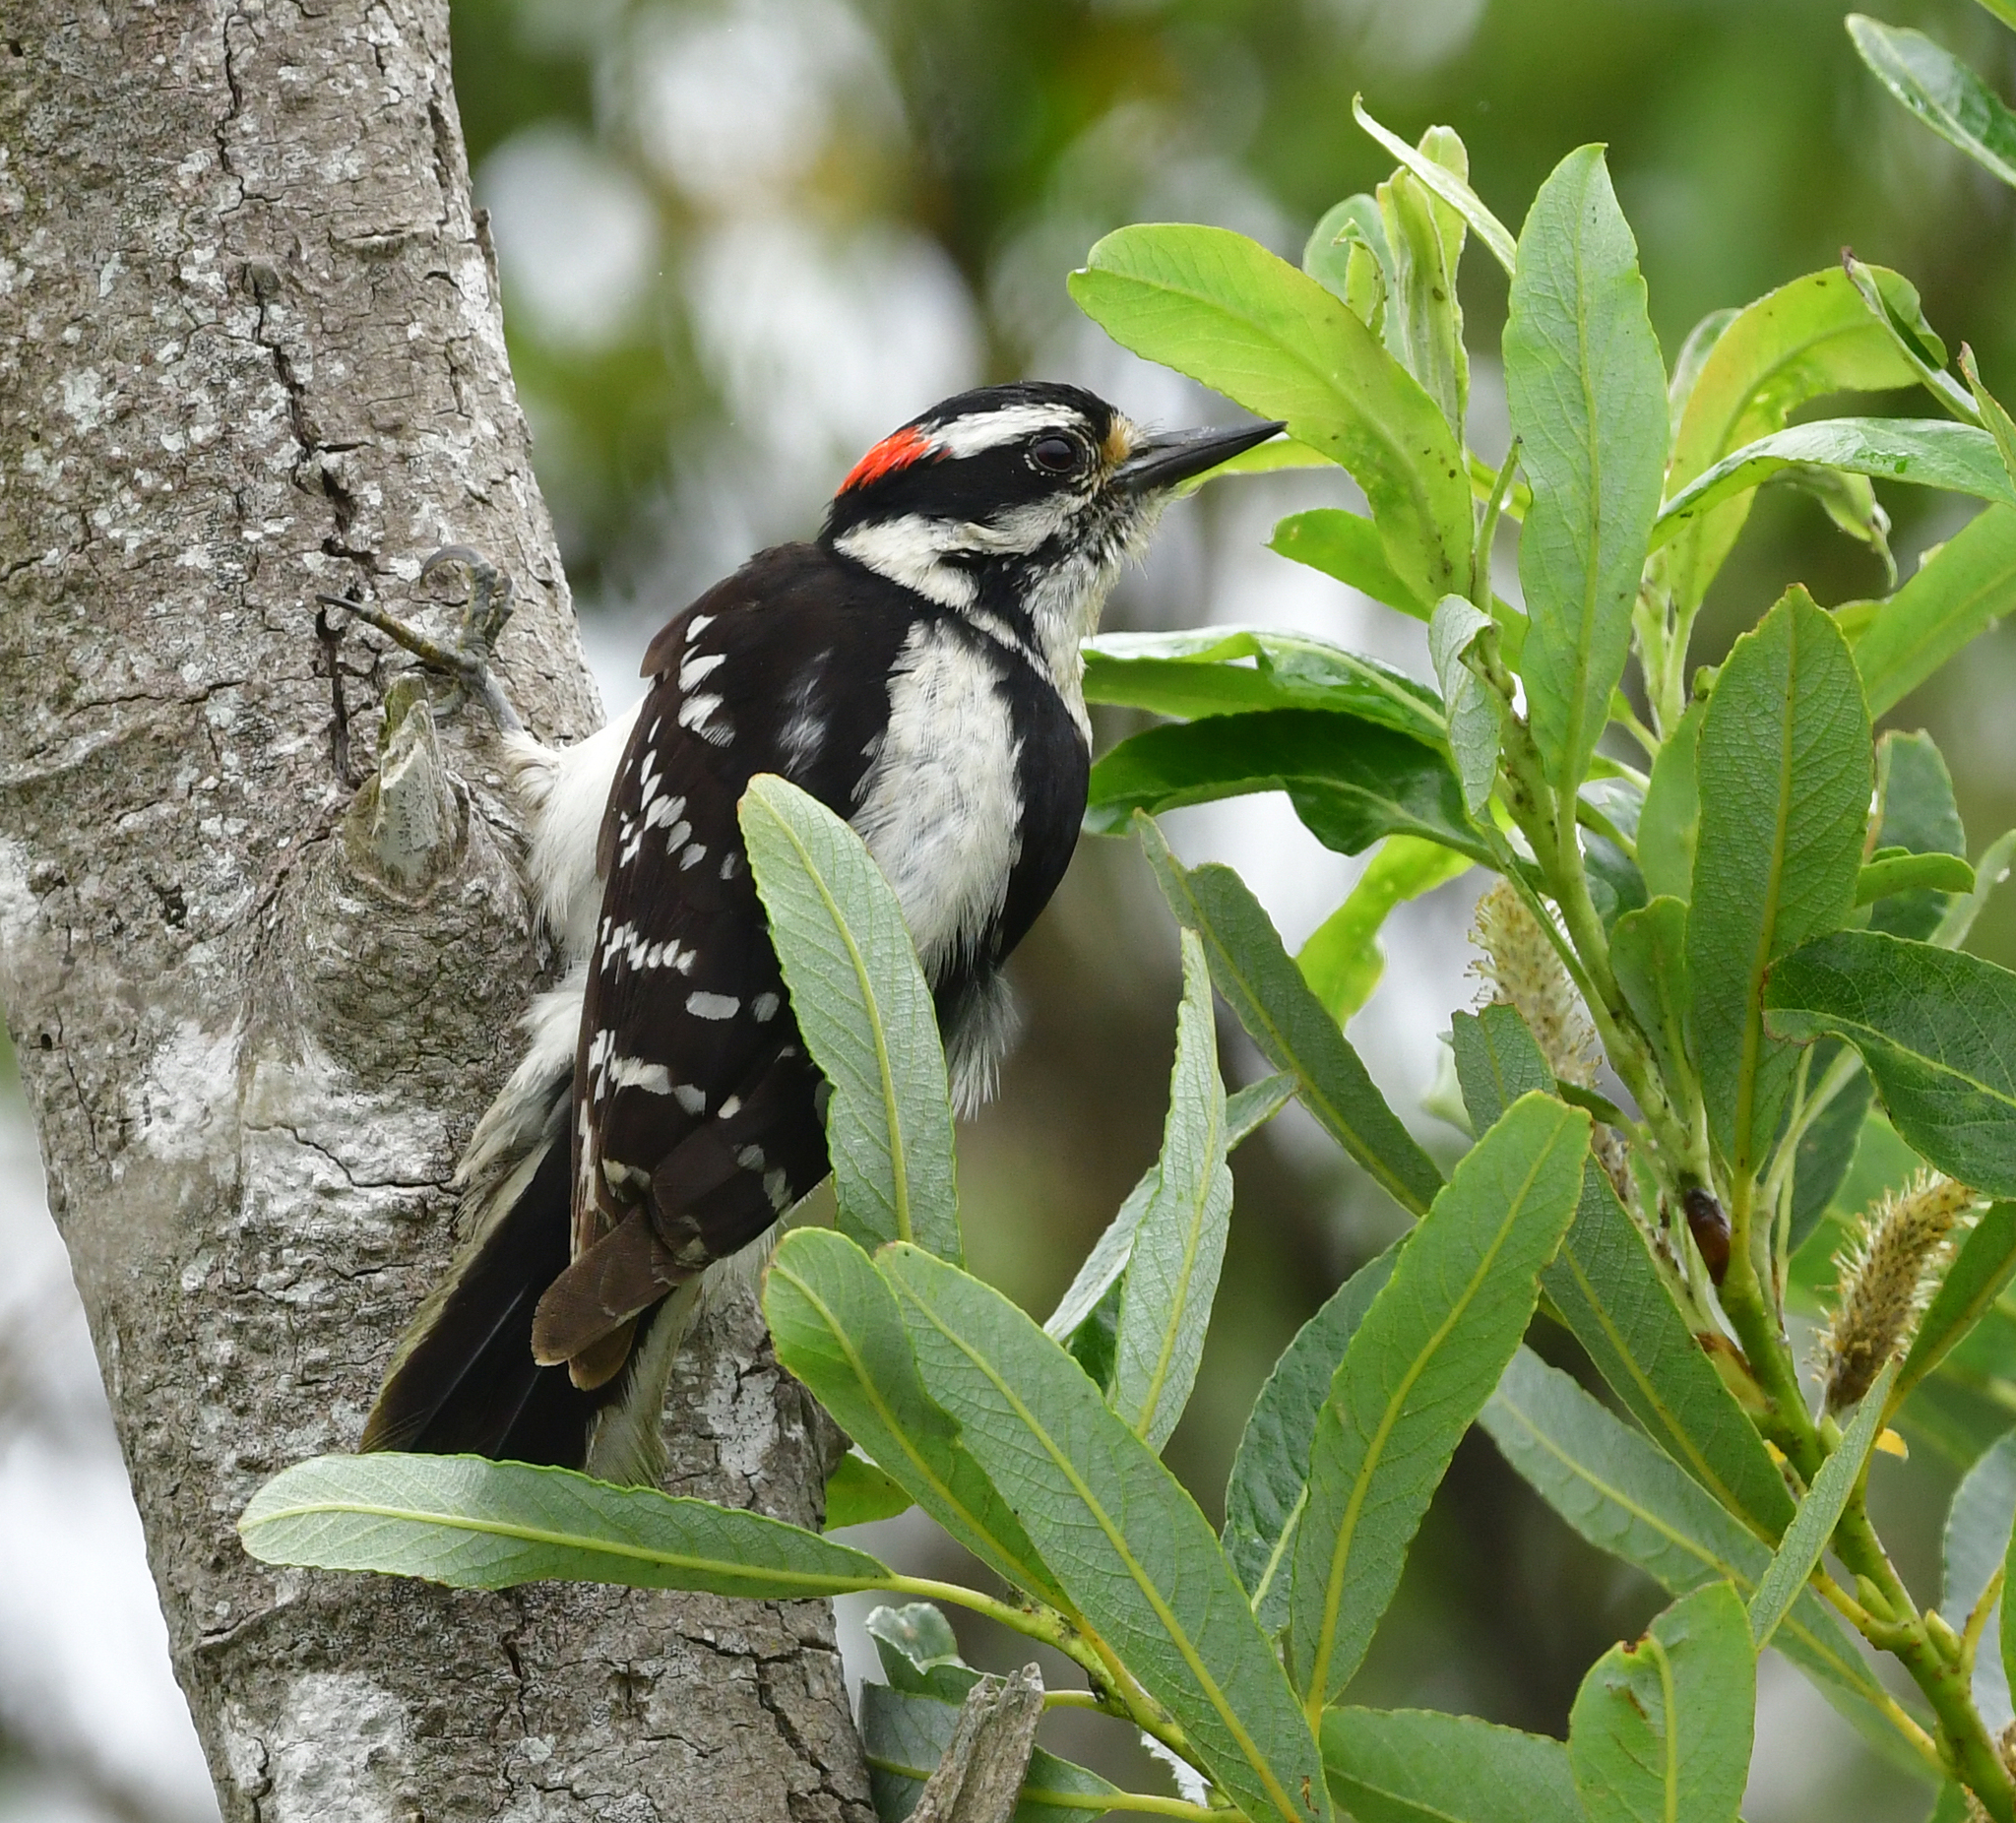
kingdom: Animalia
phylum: Chordata
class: Aves
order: Piciformes
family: Picidae
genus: Dryobates
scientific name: Dryobates pubescens
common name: Downy woodpecker
